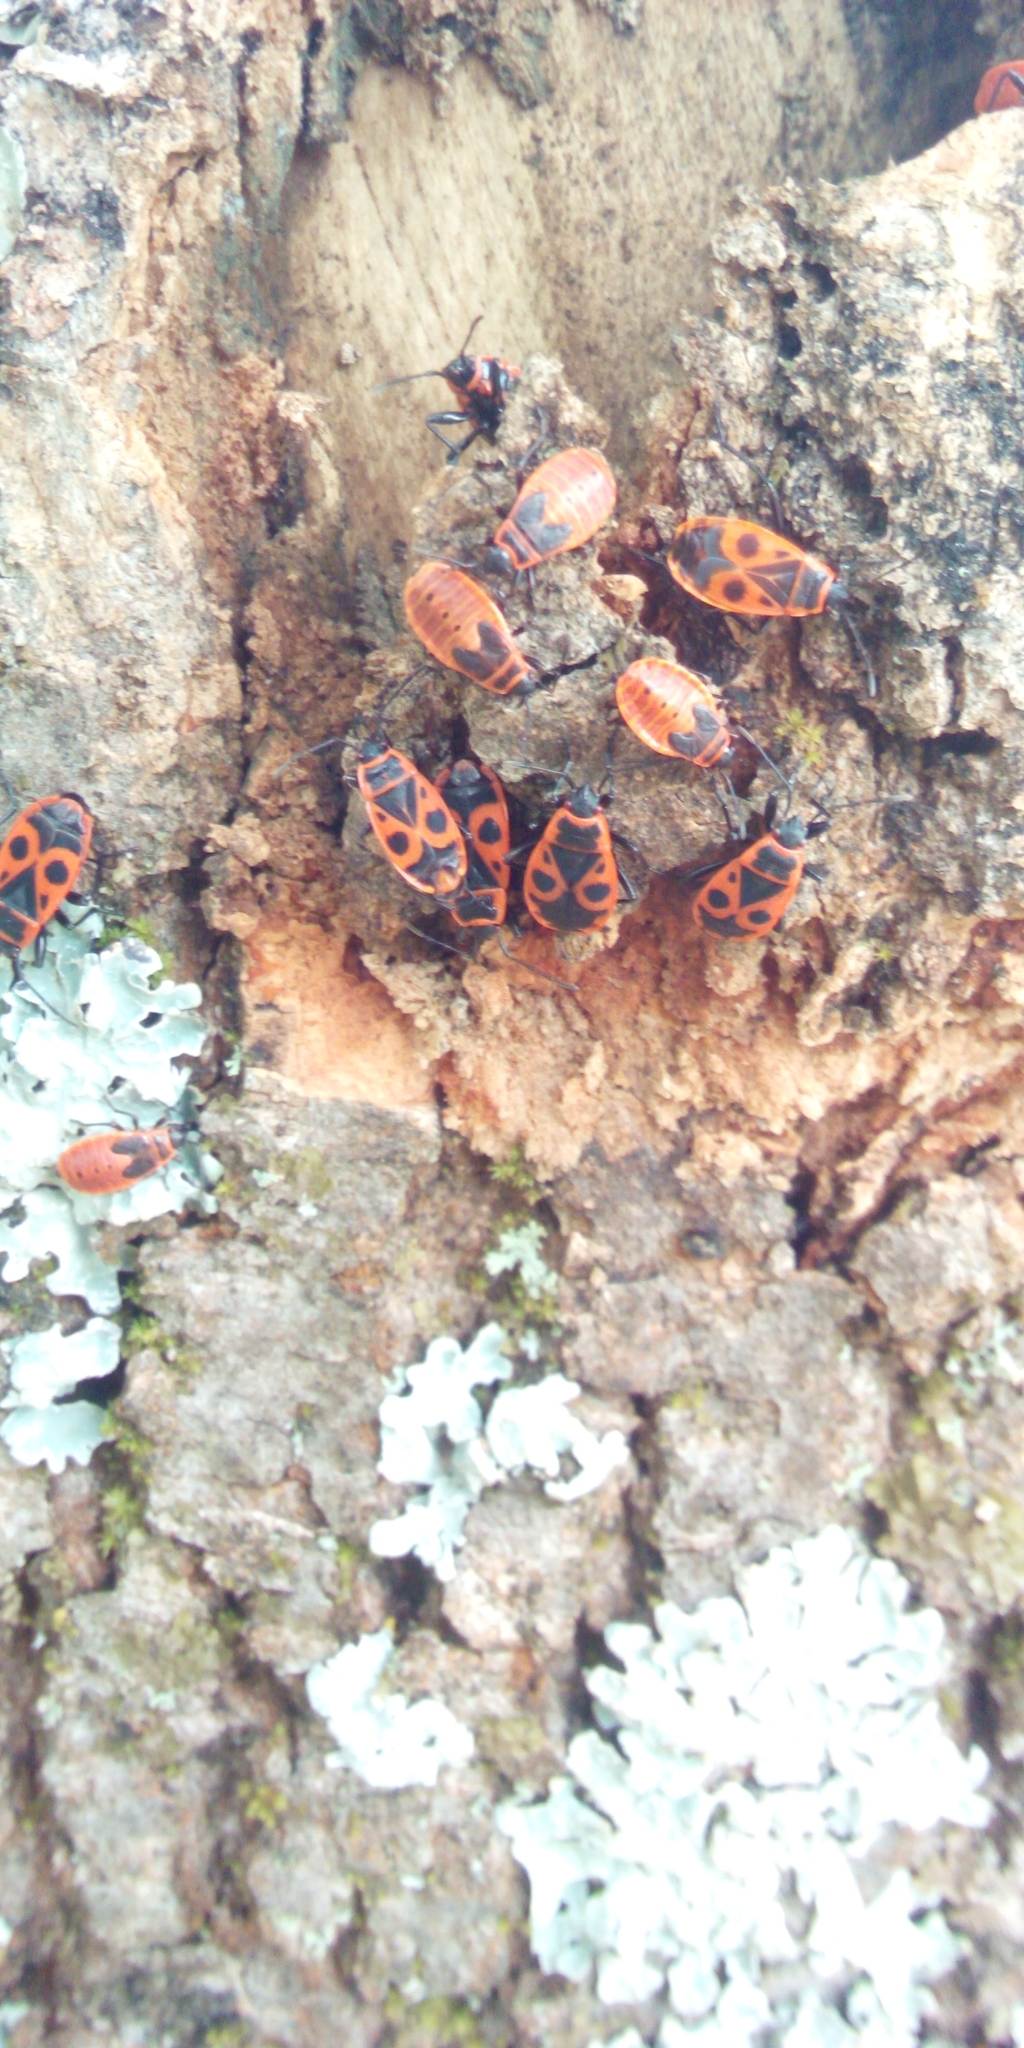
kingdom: Animalia
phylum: Arthropoda
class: Insecta
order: Hemiptera
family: Pyrrhocoridae
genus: Pyrrhocoris
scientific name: Pyrrhocoris apterus
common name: Firebug
